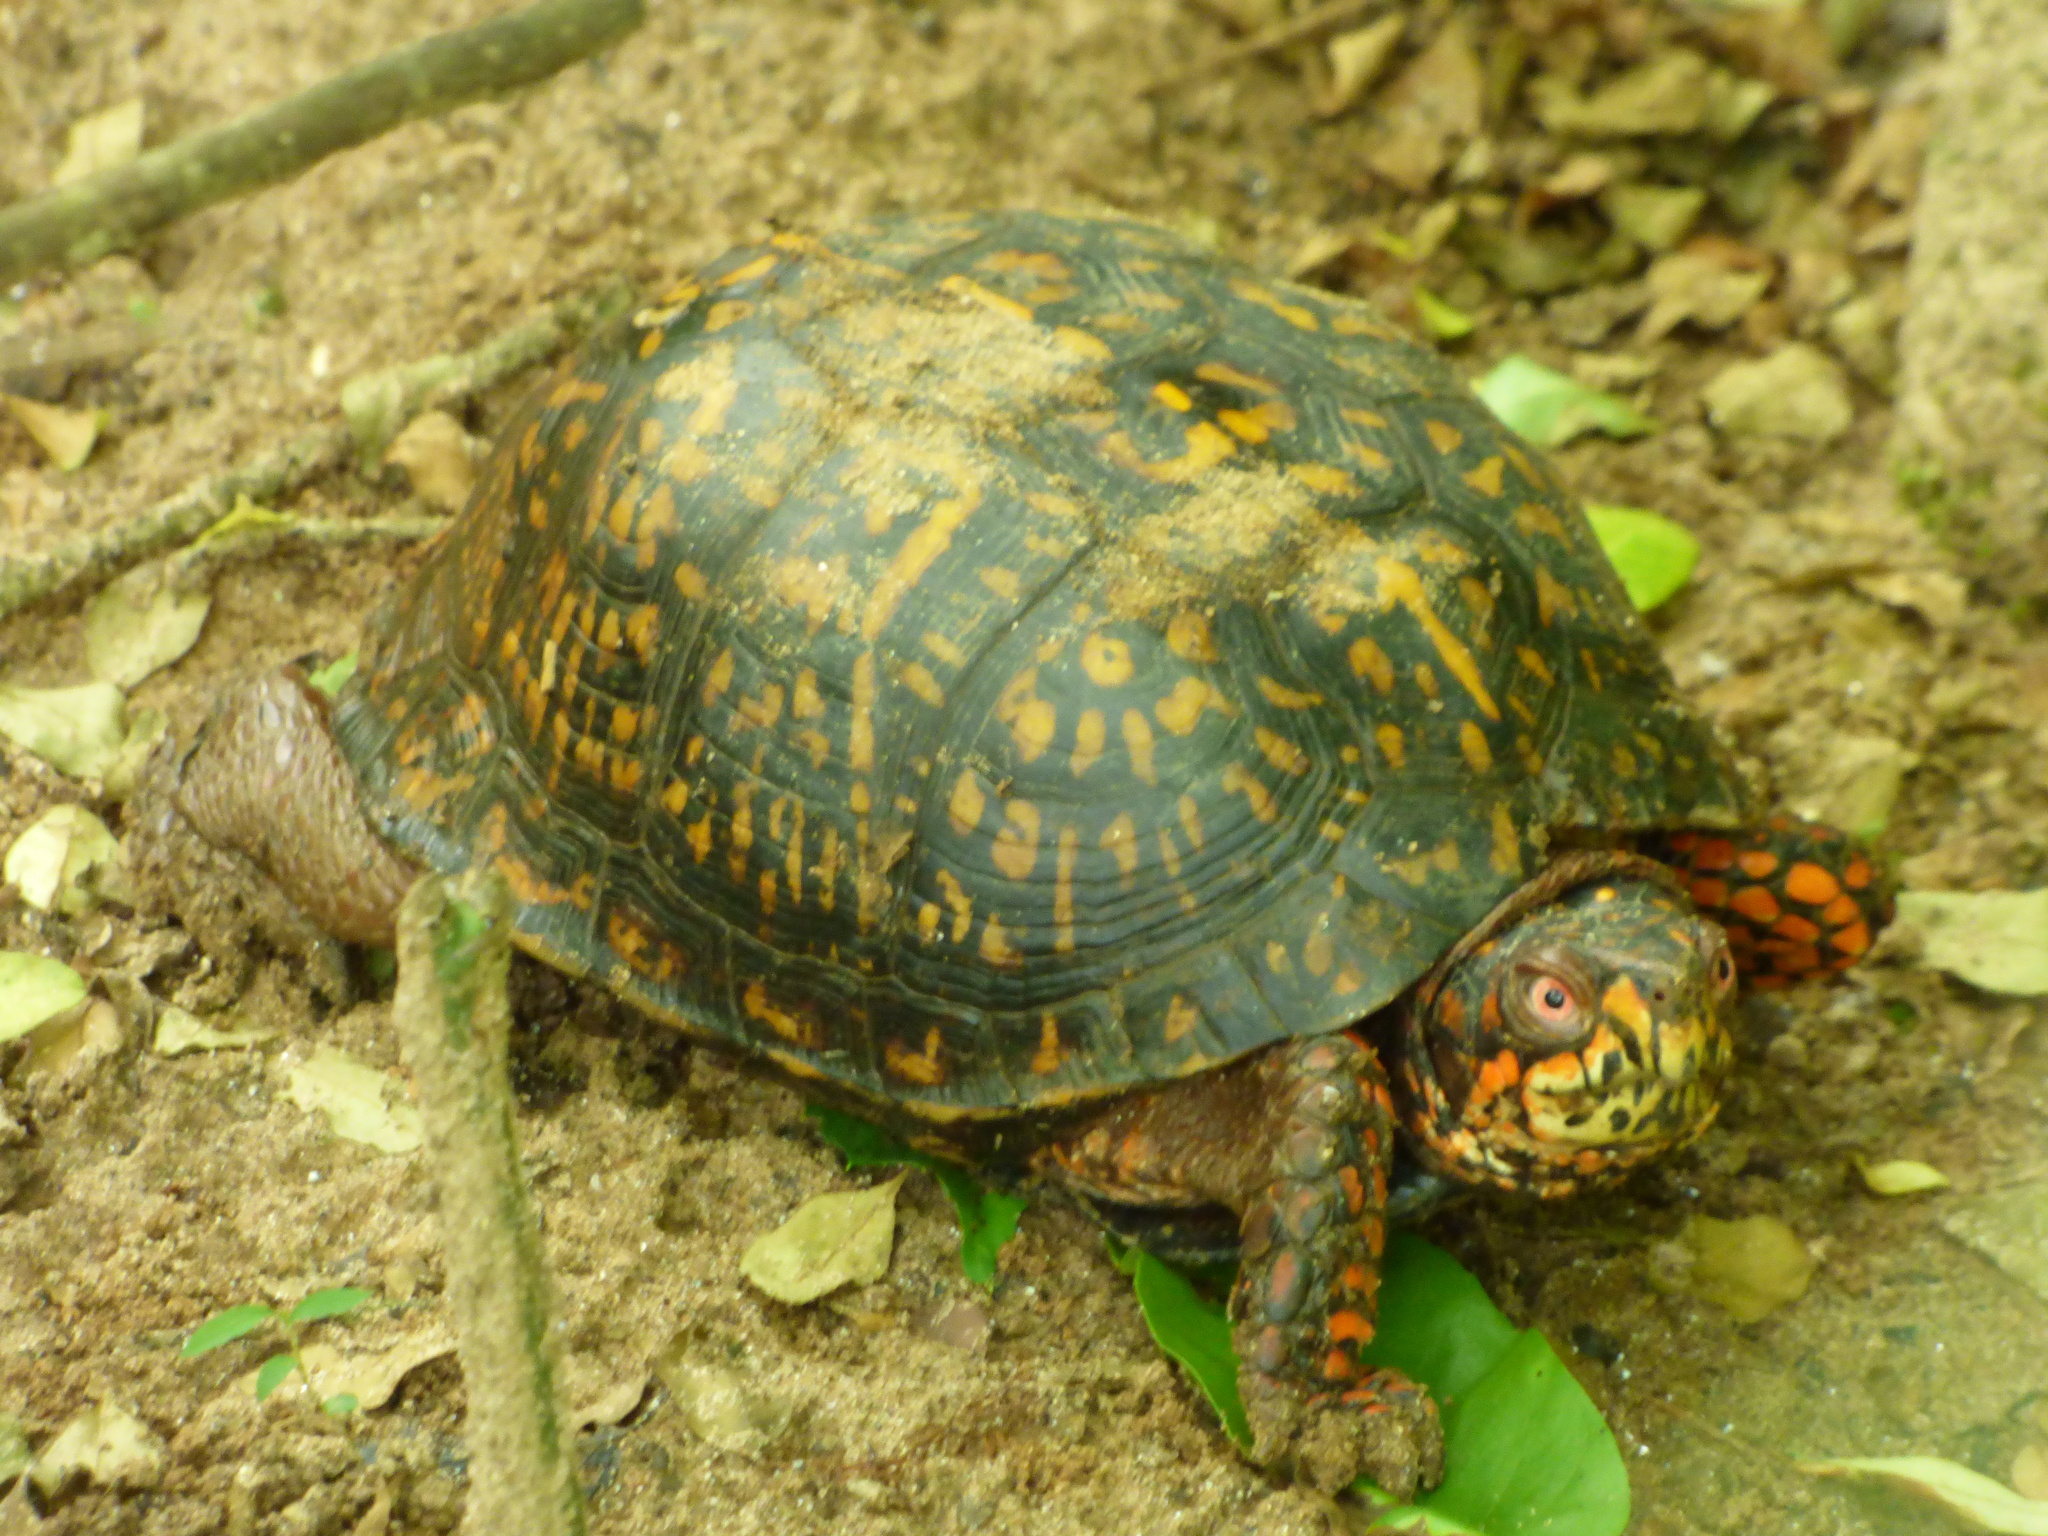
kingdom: Animalia
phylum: Chordata
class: Testudines
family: Emydidae
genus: Terrapene
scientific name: Terrapene carolina
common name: Common box turtle
